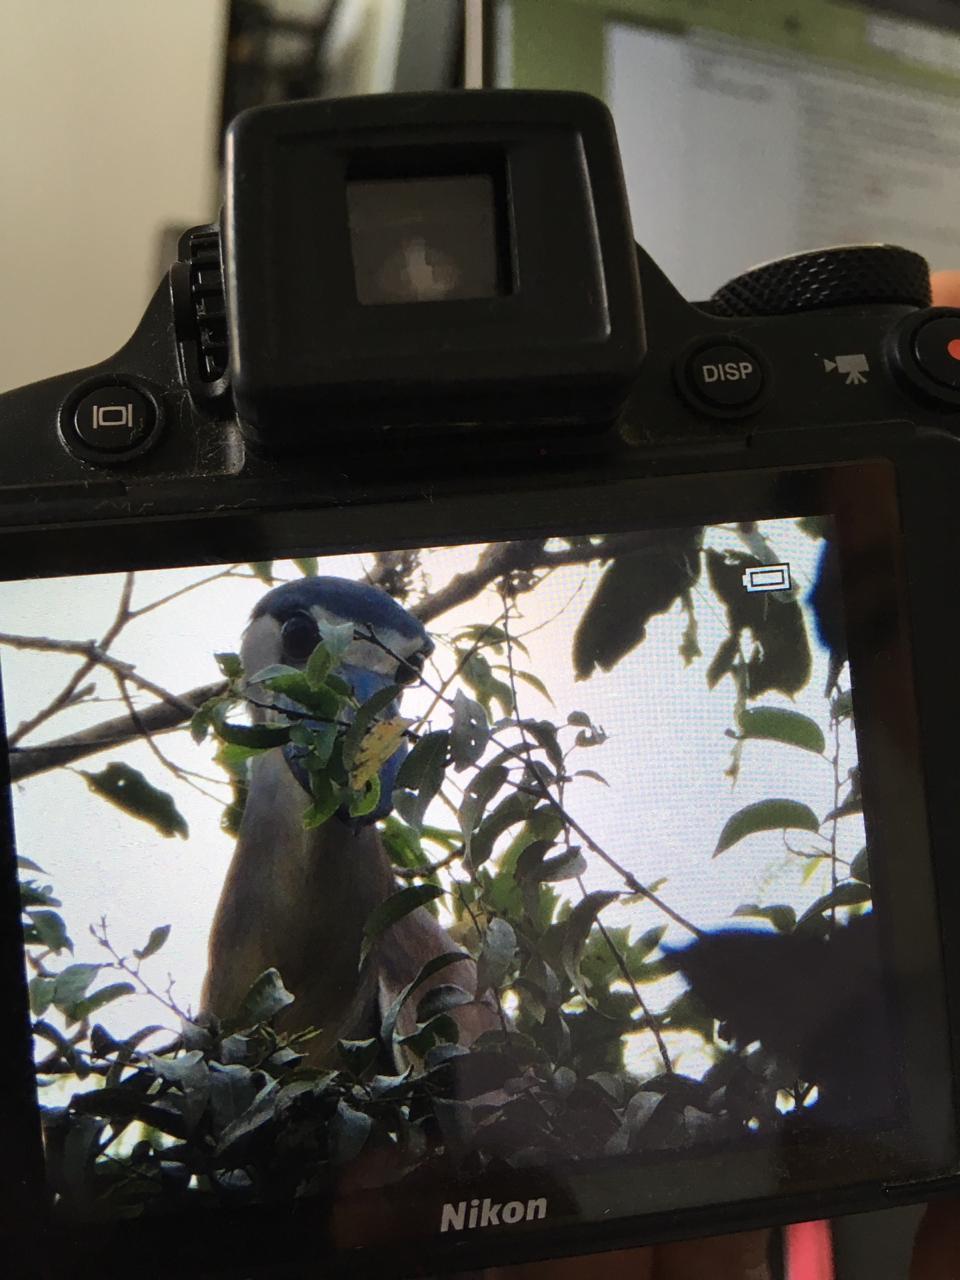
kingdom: Animalia
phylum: Chordata
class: Aves
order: Pelecaniformes
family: Ardeidae
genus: Cochlearius
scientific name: Cochlearius cochlearius
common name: Boat-billed heron
